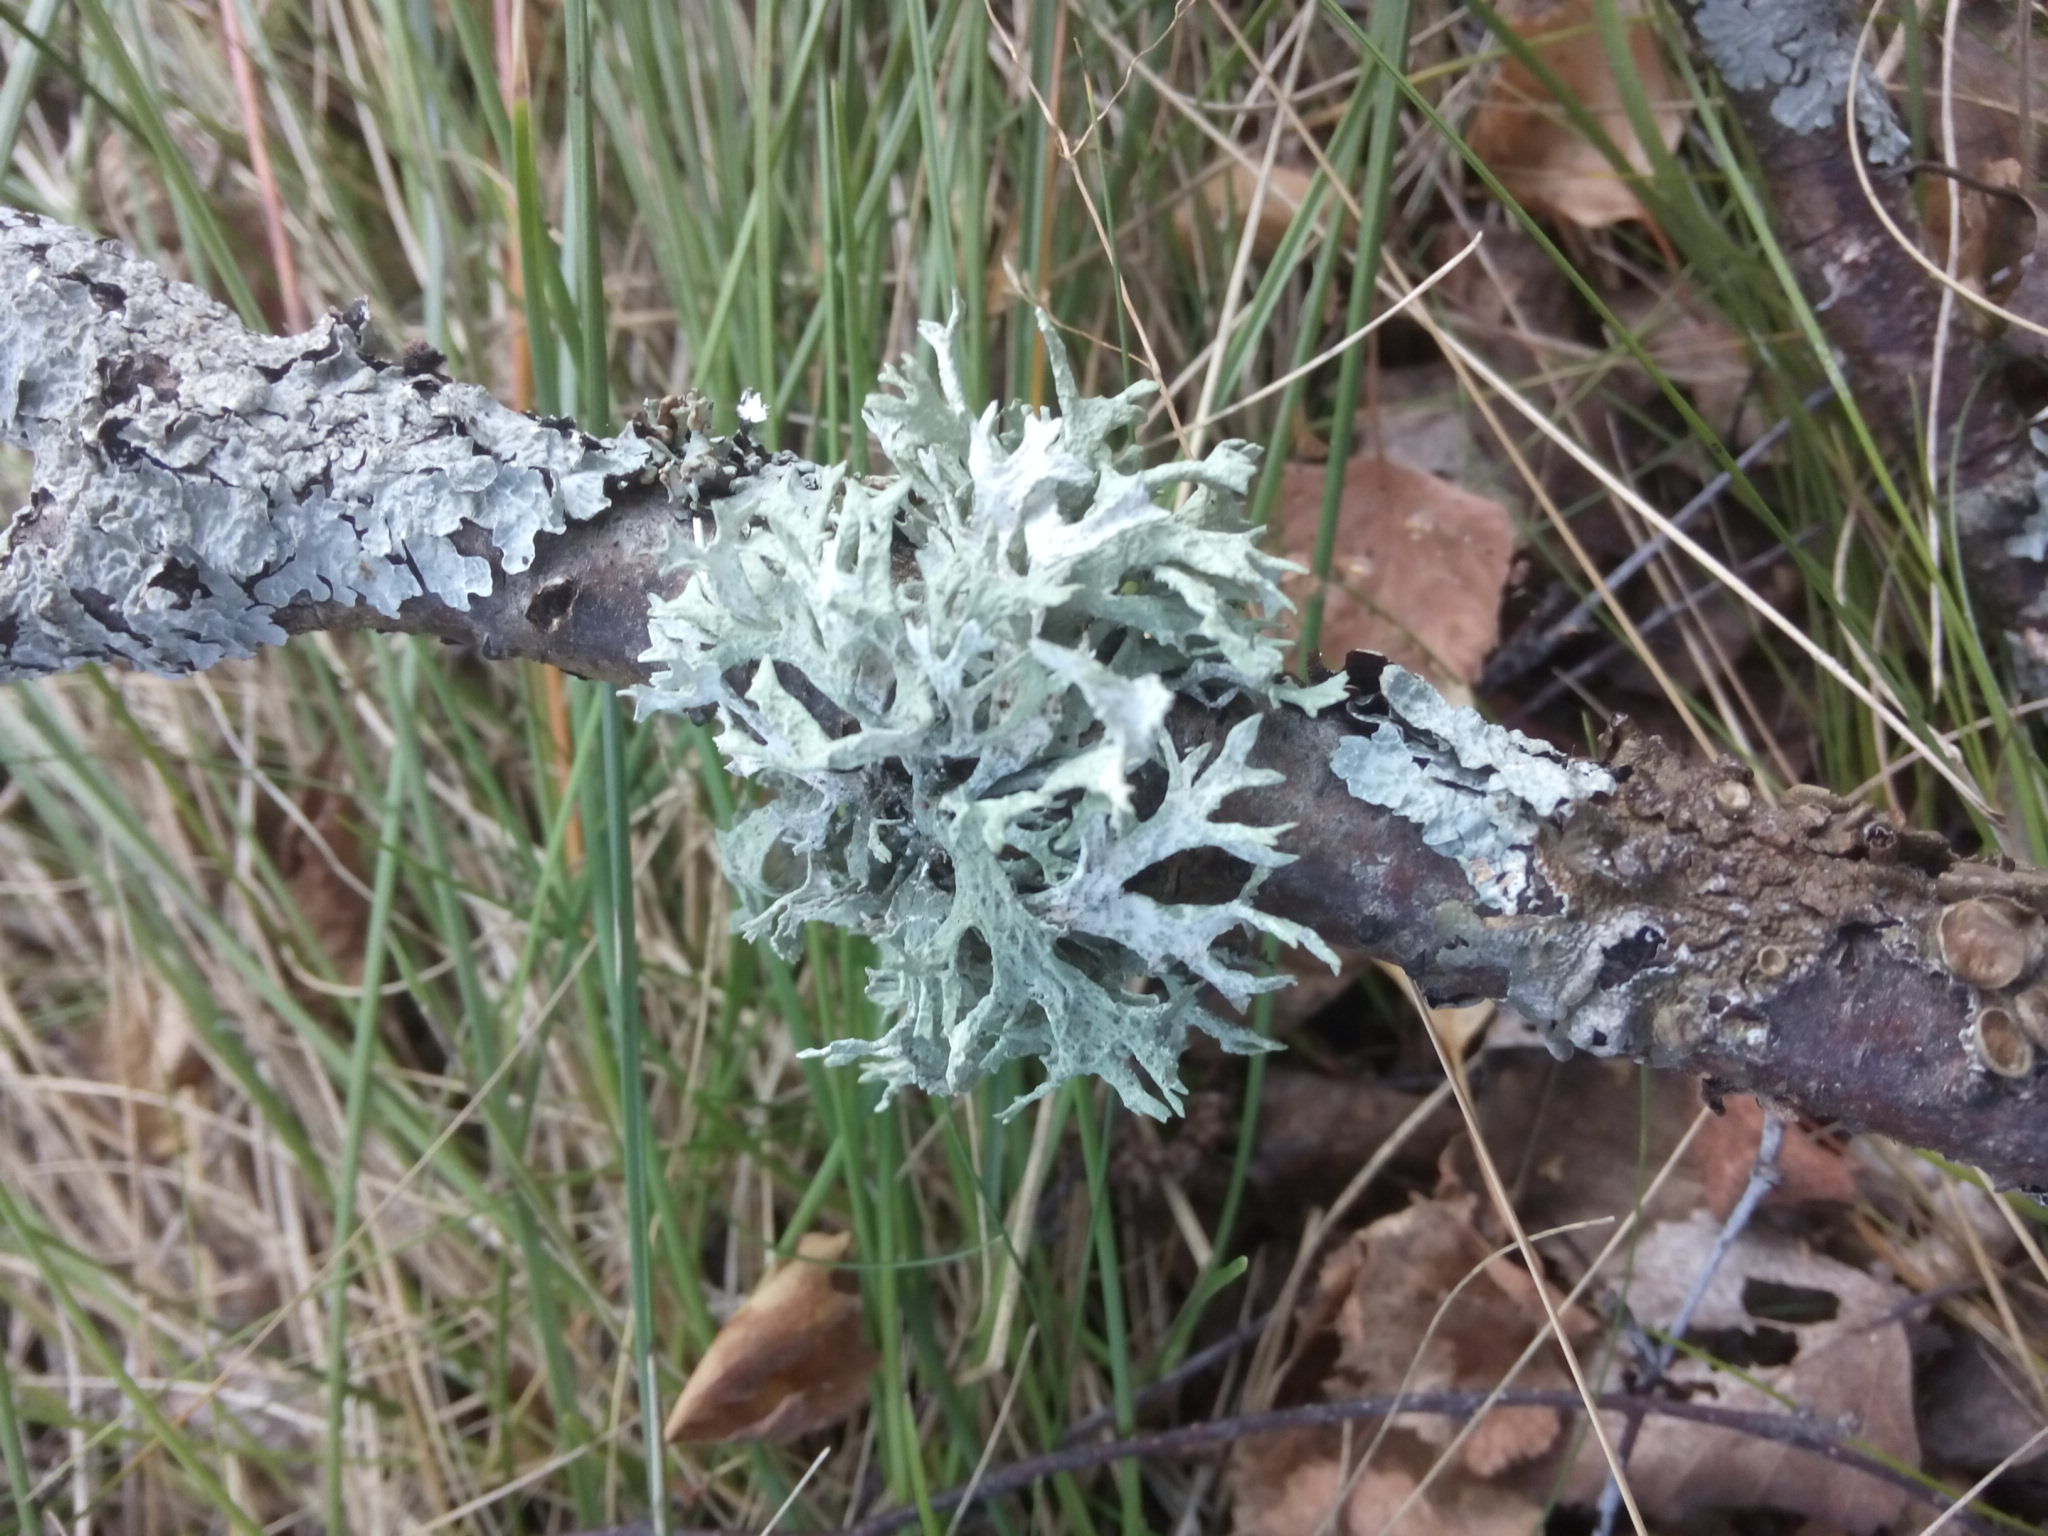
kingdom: Fungi
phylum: Ascomycota
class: Lecanoromycetes
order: Lecanorales
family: Parmeliaceae
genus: Evernia
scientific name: Evernia prunastri
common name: Oak moss
